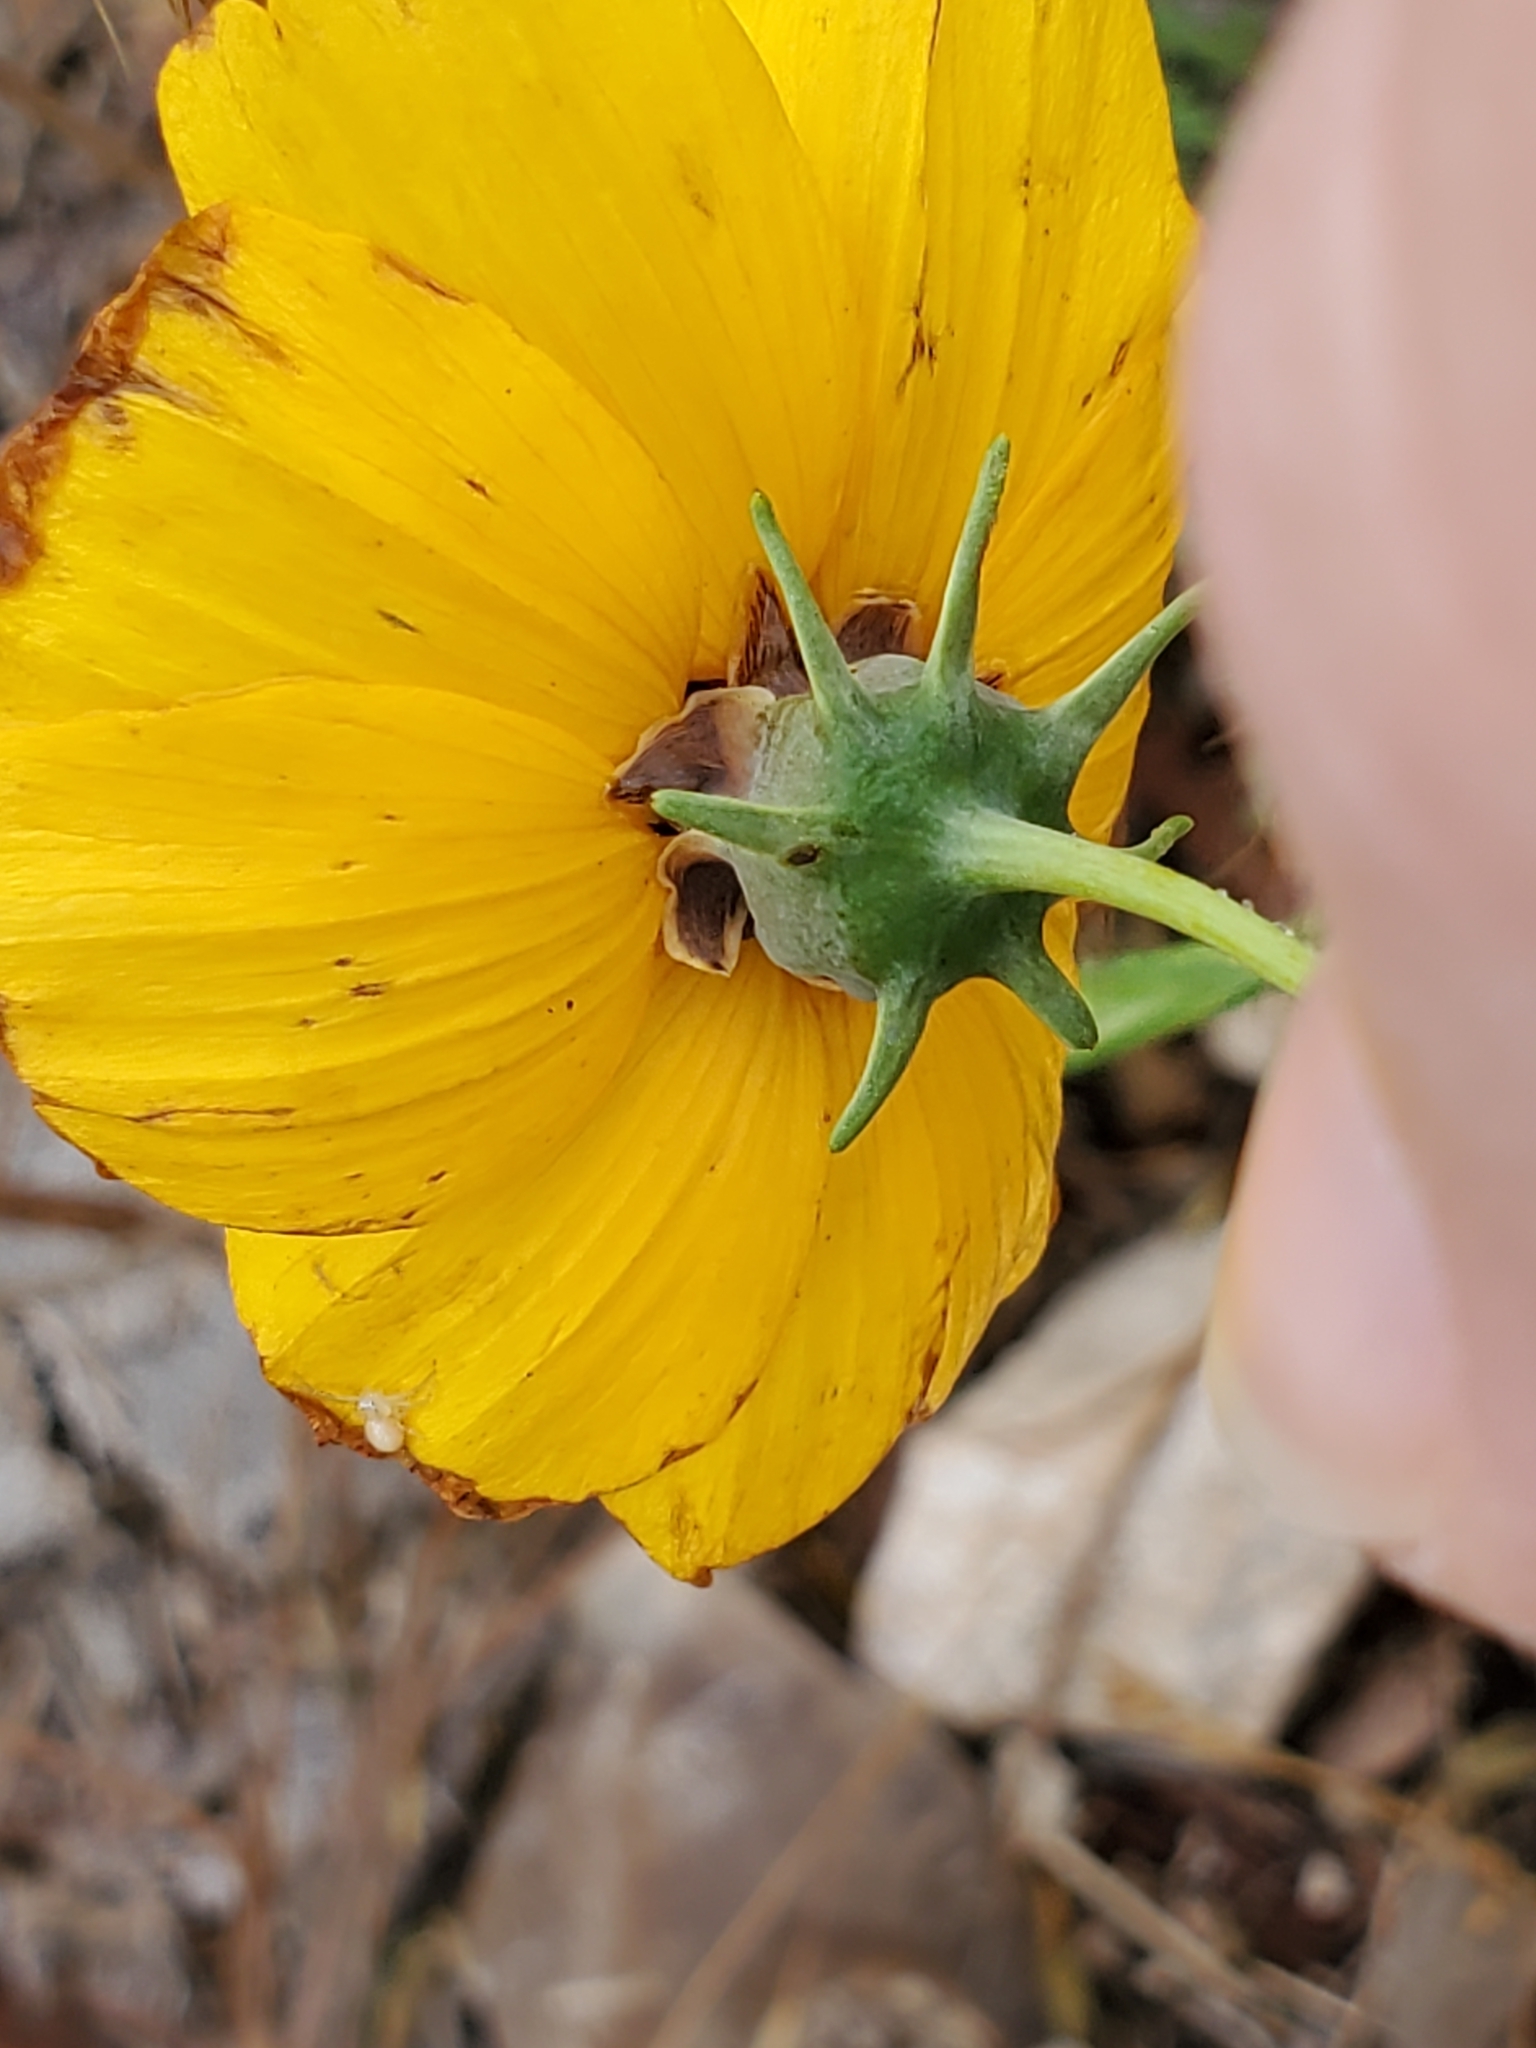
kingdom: Plantae
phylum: Tracheophyta
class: Magnoliopsida
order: Asterales
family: Asteraceae
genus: Thelesperma
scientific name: Thelesperma filifolium
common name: Stiff greenthread
